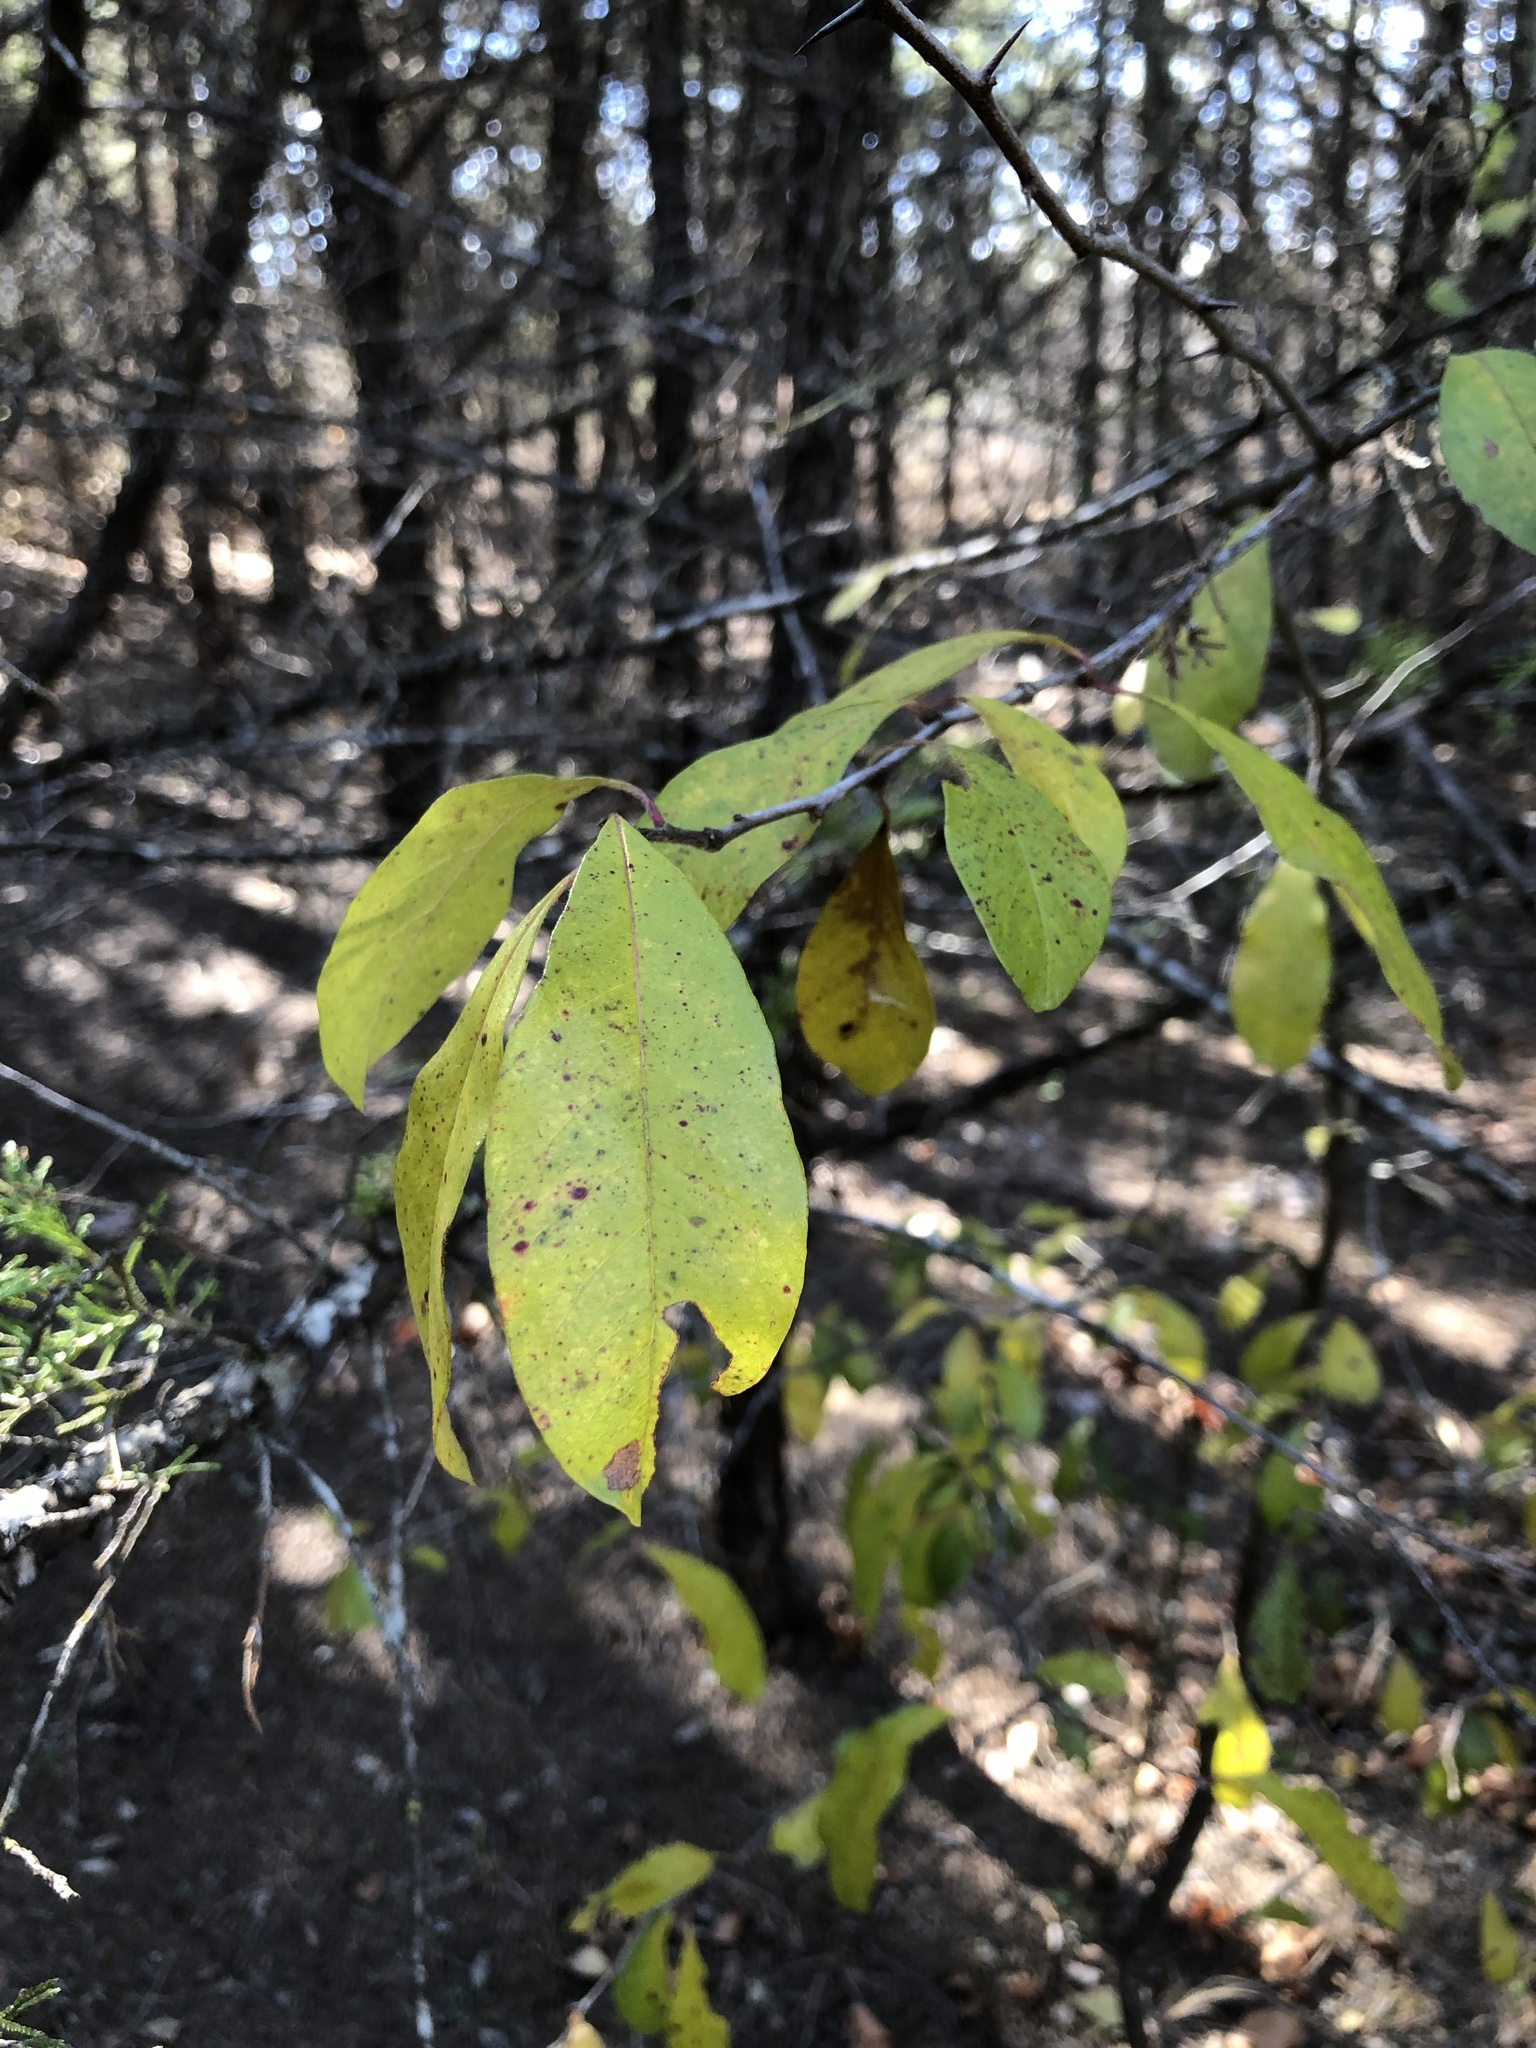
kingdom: Plantae
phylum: Tracheophyta
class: Magnoliopsida
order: Ericales
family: Sapotaceae
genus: Sideroxylon
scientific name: Sideroxylon lanuginosum
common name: Chittamwood
